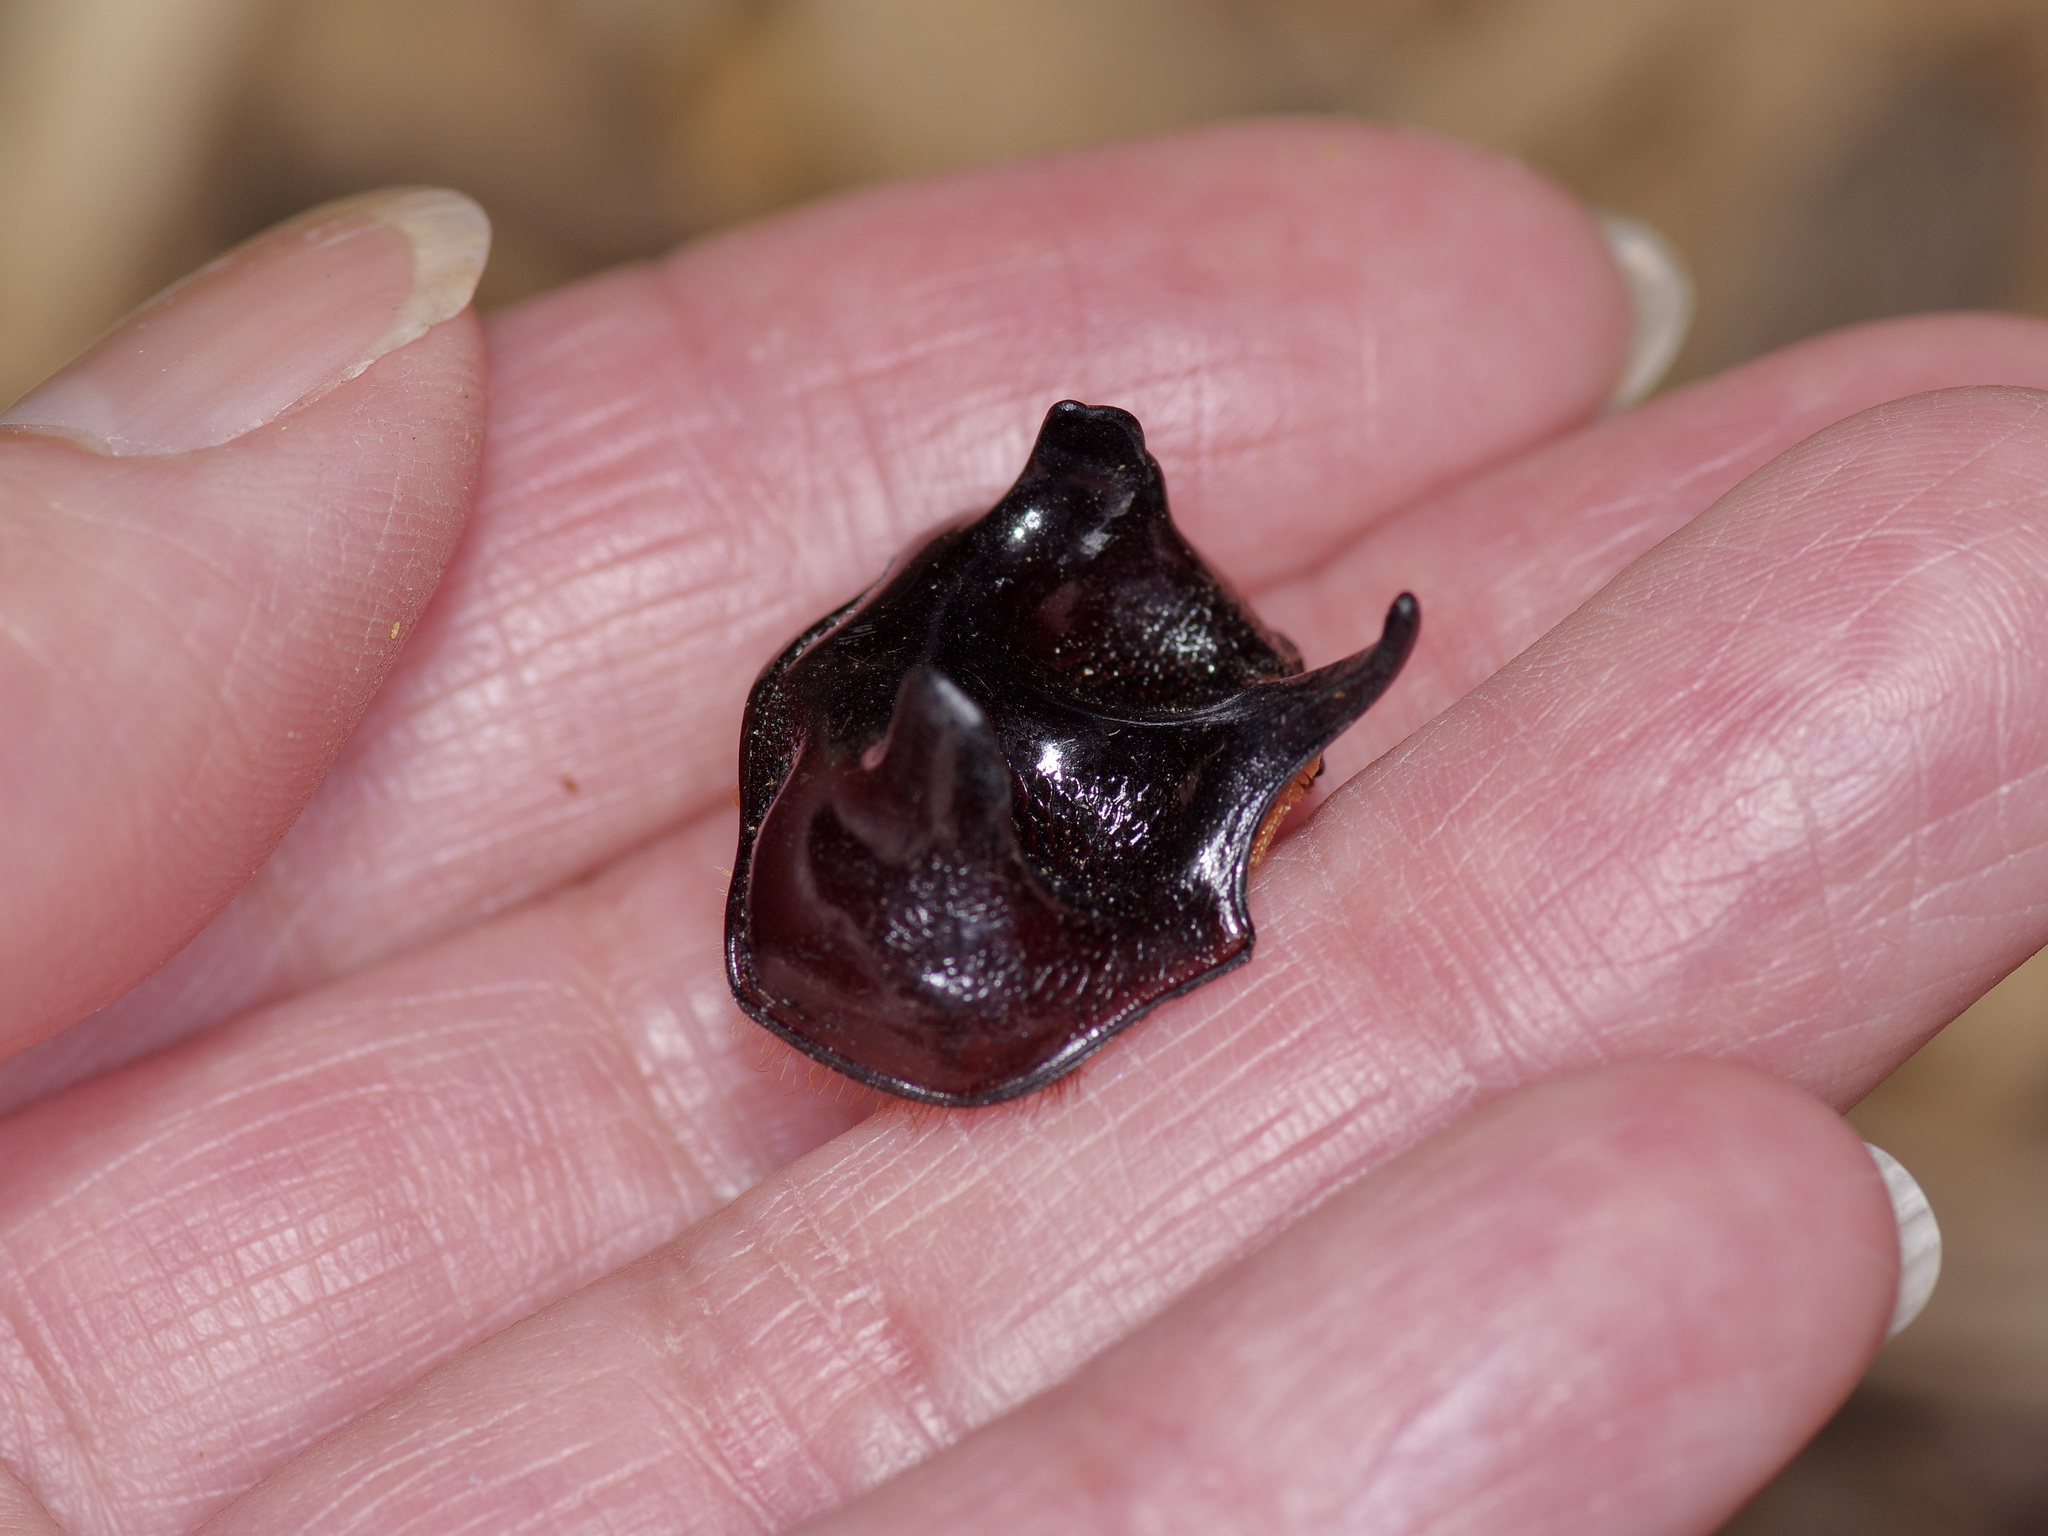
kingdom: Animalia
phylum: Arthropoda
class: Insecta
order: Coleoptera
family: Scarabaeidae
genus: Strategus
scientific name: Strategus aloeus
